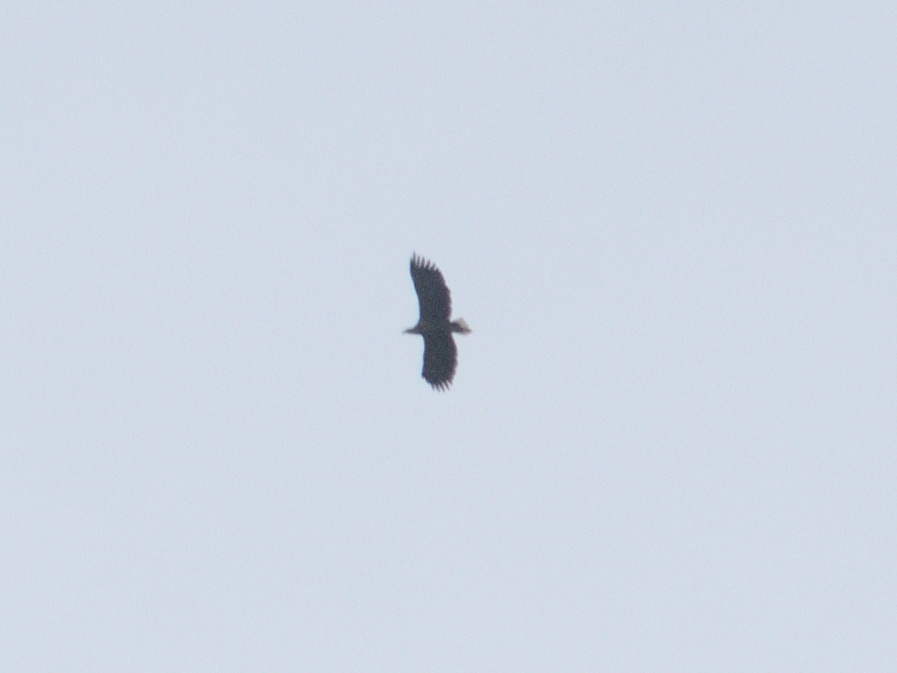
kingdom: Animalia
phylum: Chordata
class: Aves
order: Accipitriformes
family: Accipitridae
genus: Haliaeetus
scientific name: Haliaeetus albicilla
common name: White-tailed eagle
